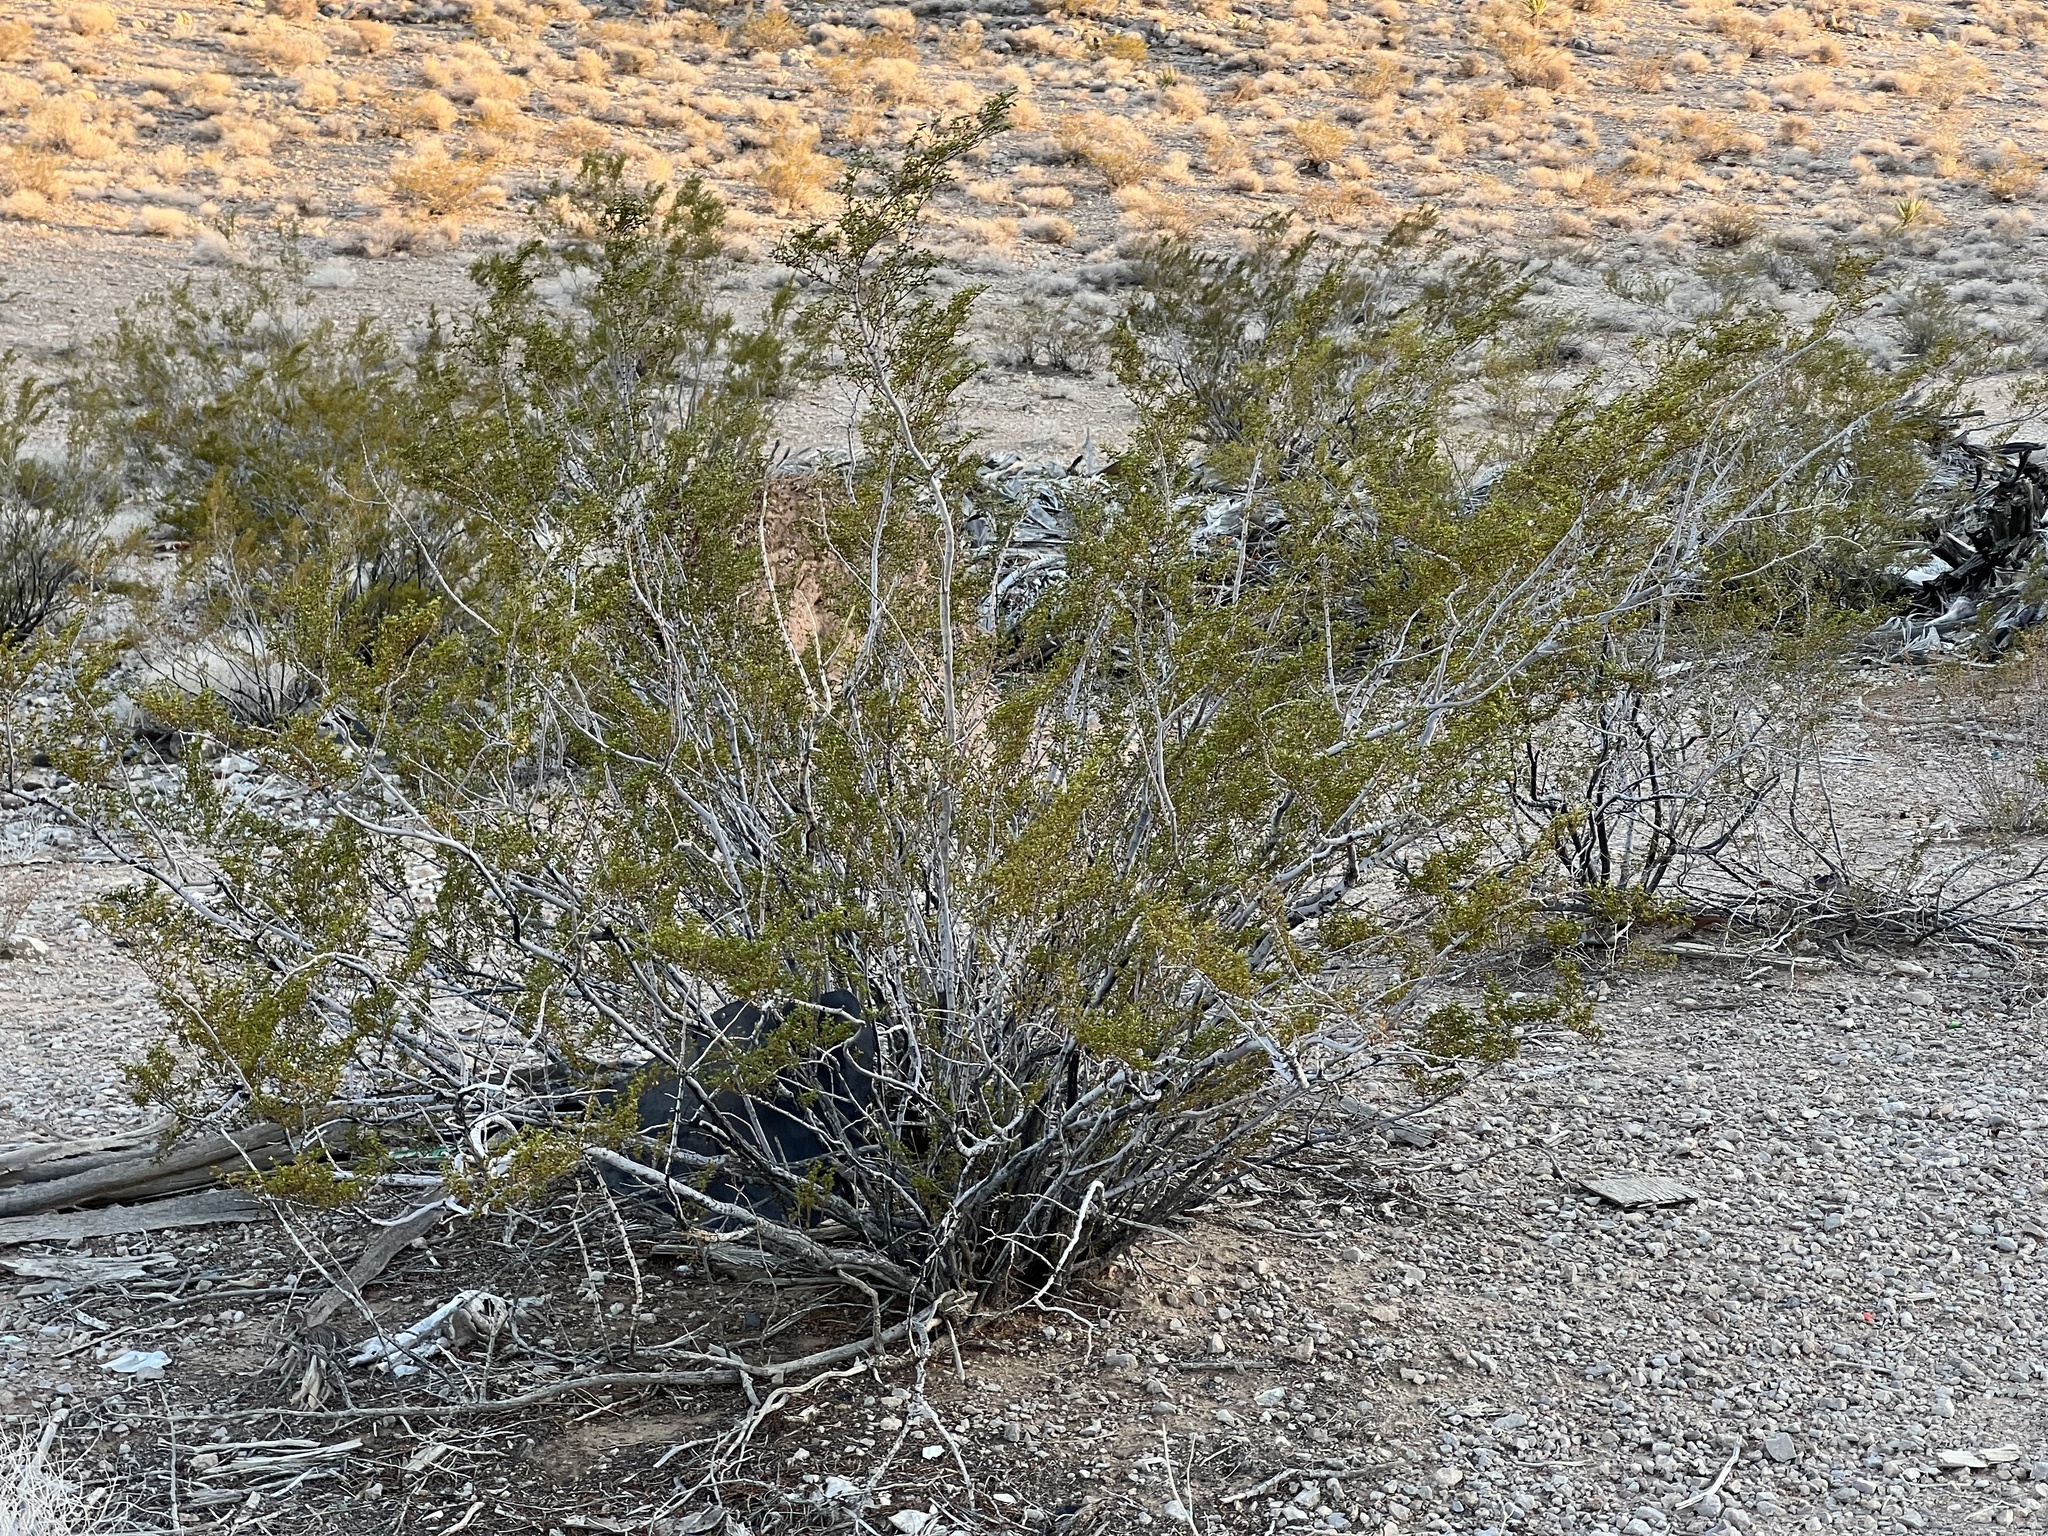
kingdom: Plantae
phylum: Tracheophyta
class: Magnoliopsida
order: Zygophyllales
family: Zygophyllaceae
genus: Larrea
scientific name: Larrea tridentata
